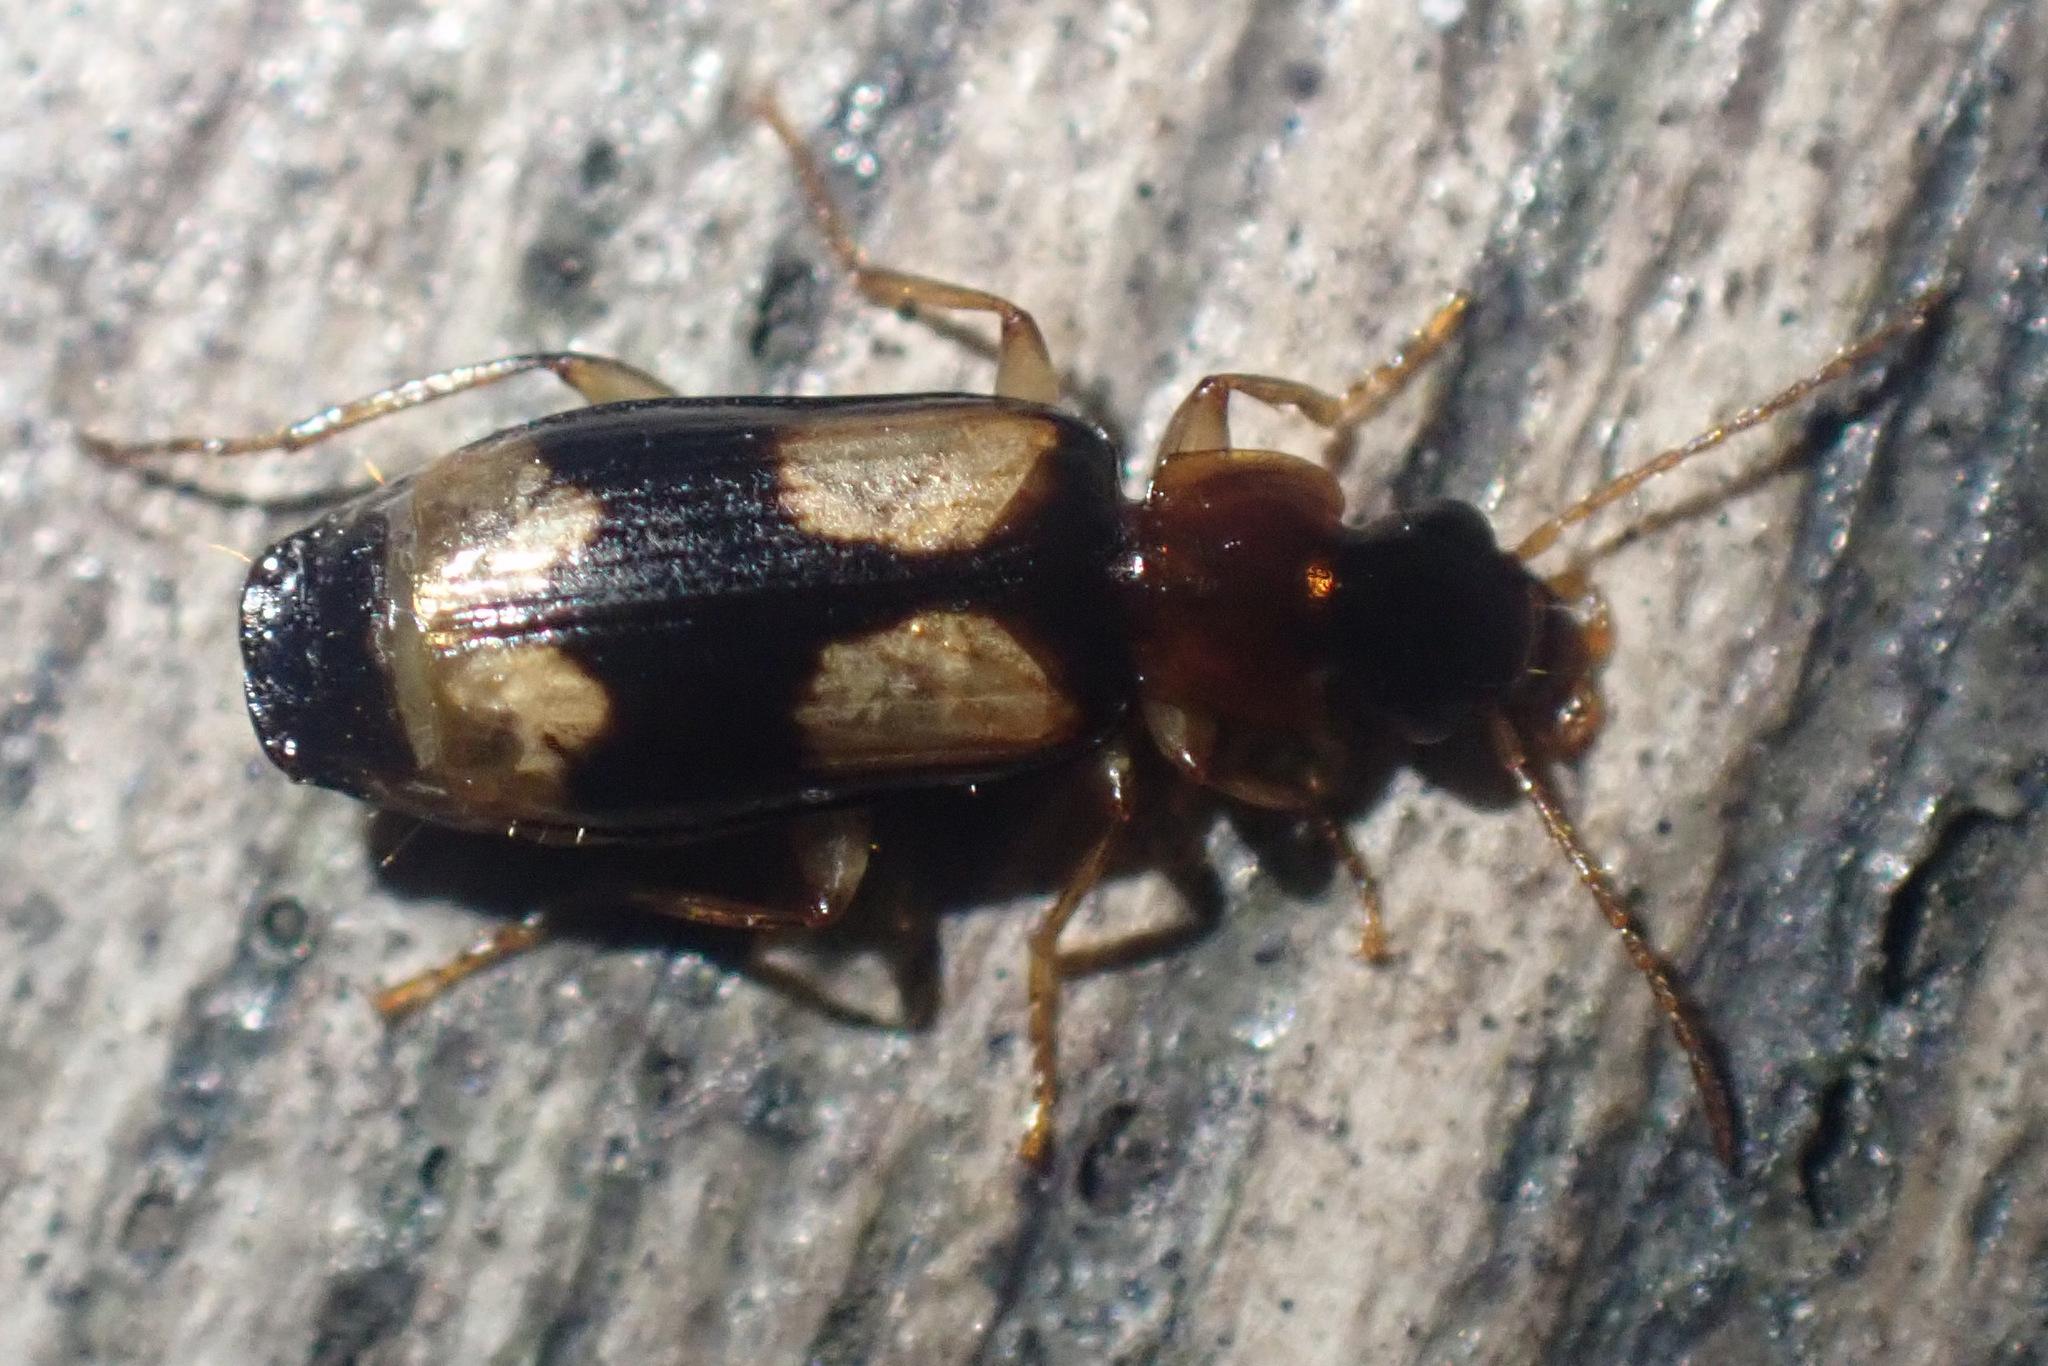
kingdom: Animalia
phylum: Arthropoda
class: Insecta
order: Coleoptera
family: Carabidae
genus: Dromius
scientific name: Dromius quadrimaculatus
